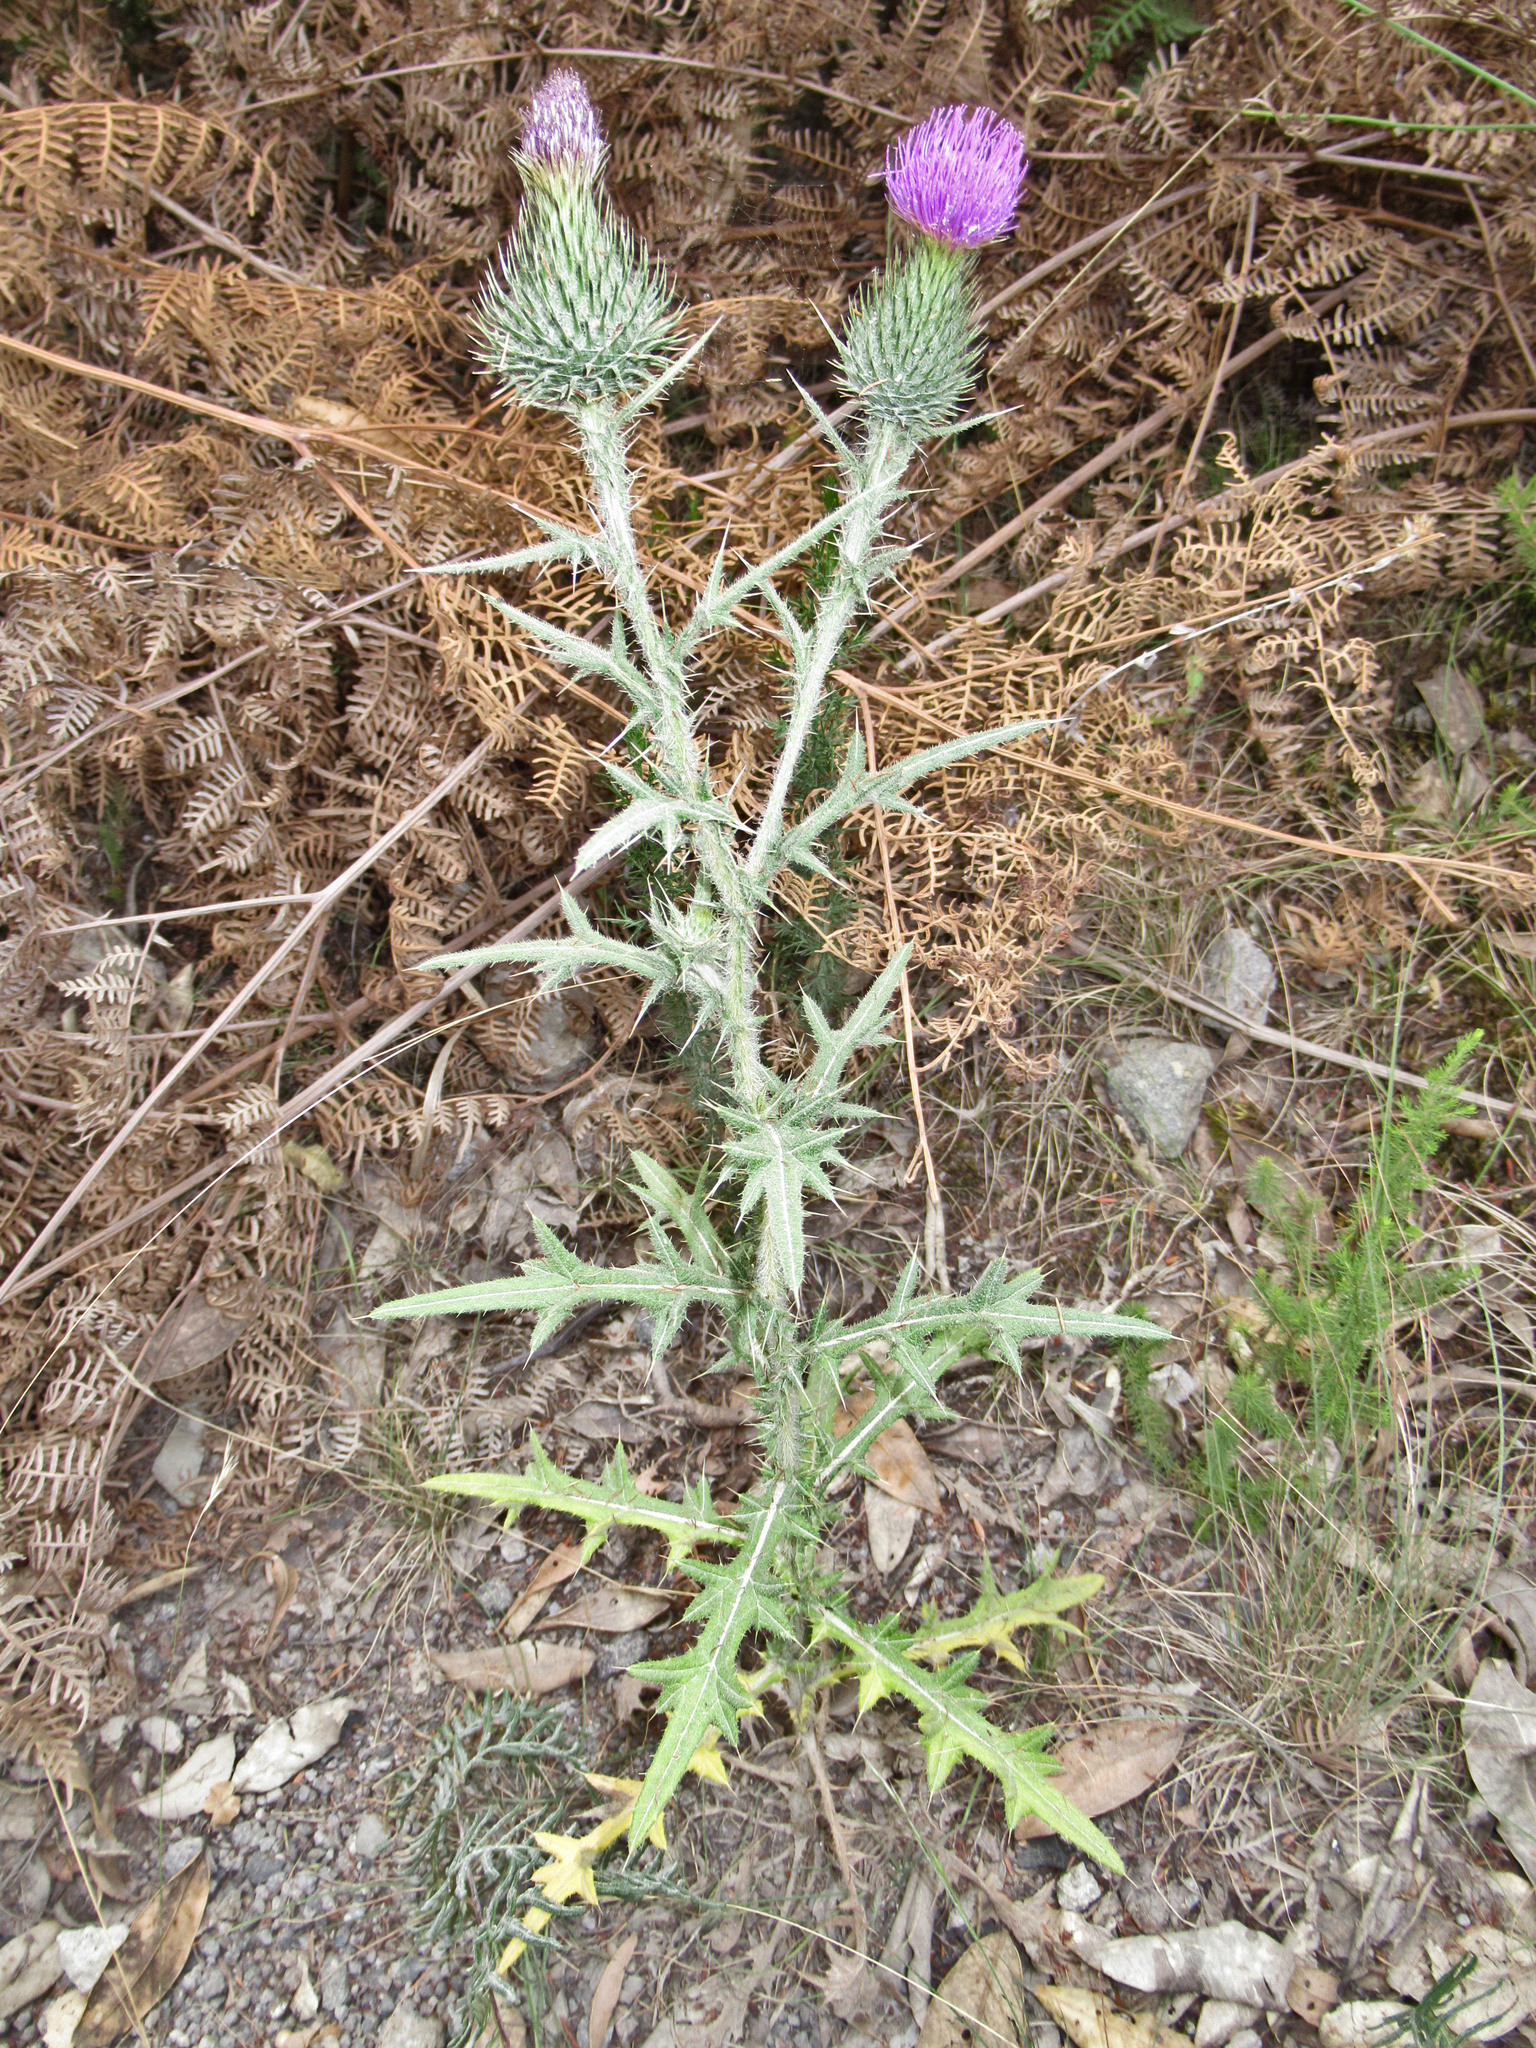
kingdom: Plantae
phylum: Tracheophyta
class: Magnoliopsida
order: Asterales
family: Asteraceae
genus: Cirsium
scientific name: Cirsium vulgare
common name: Bull thistle
